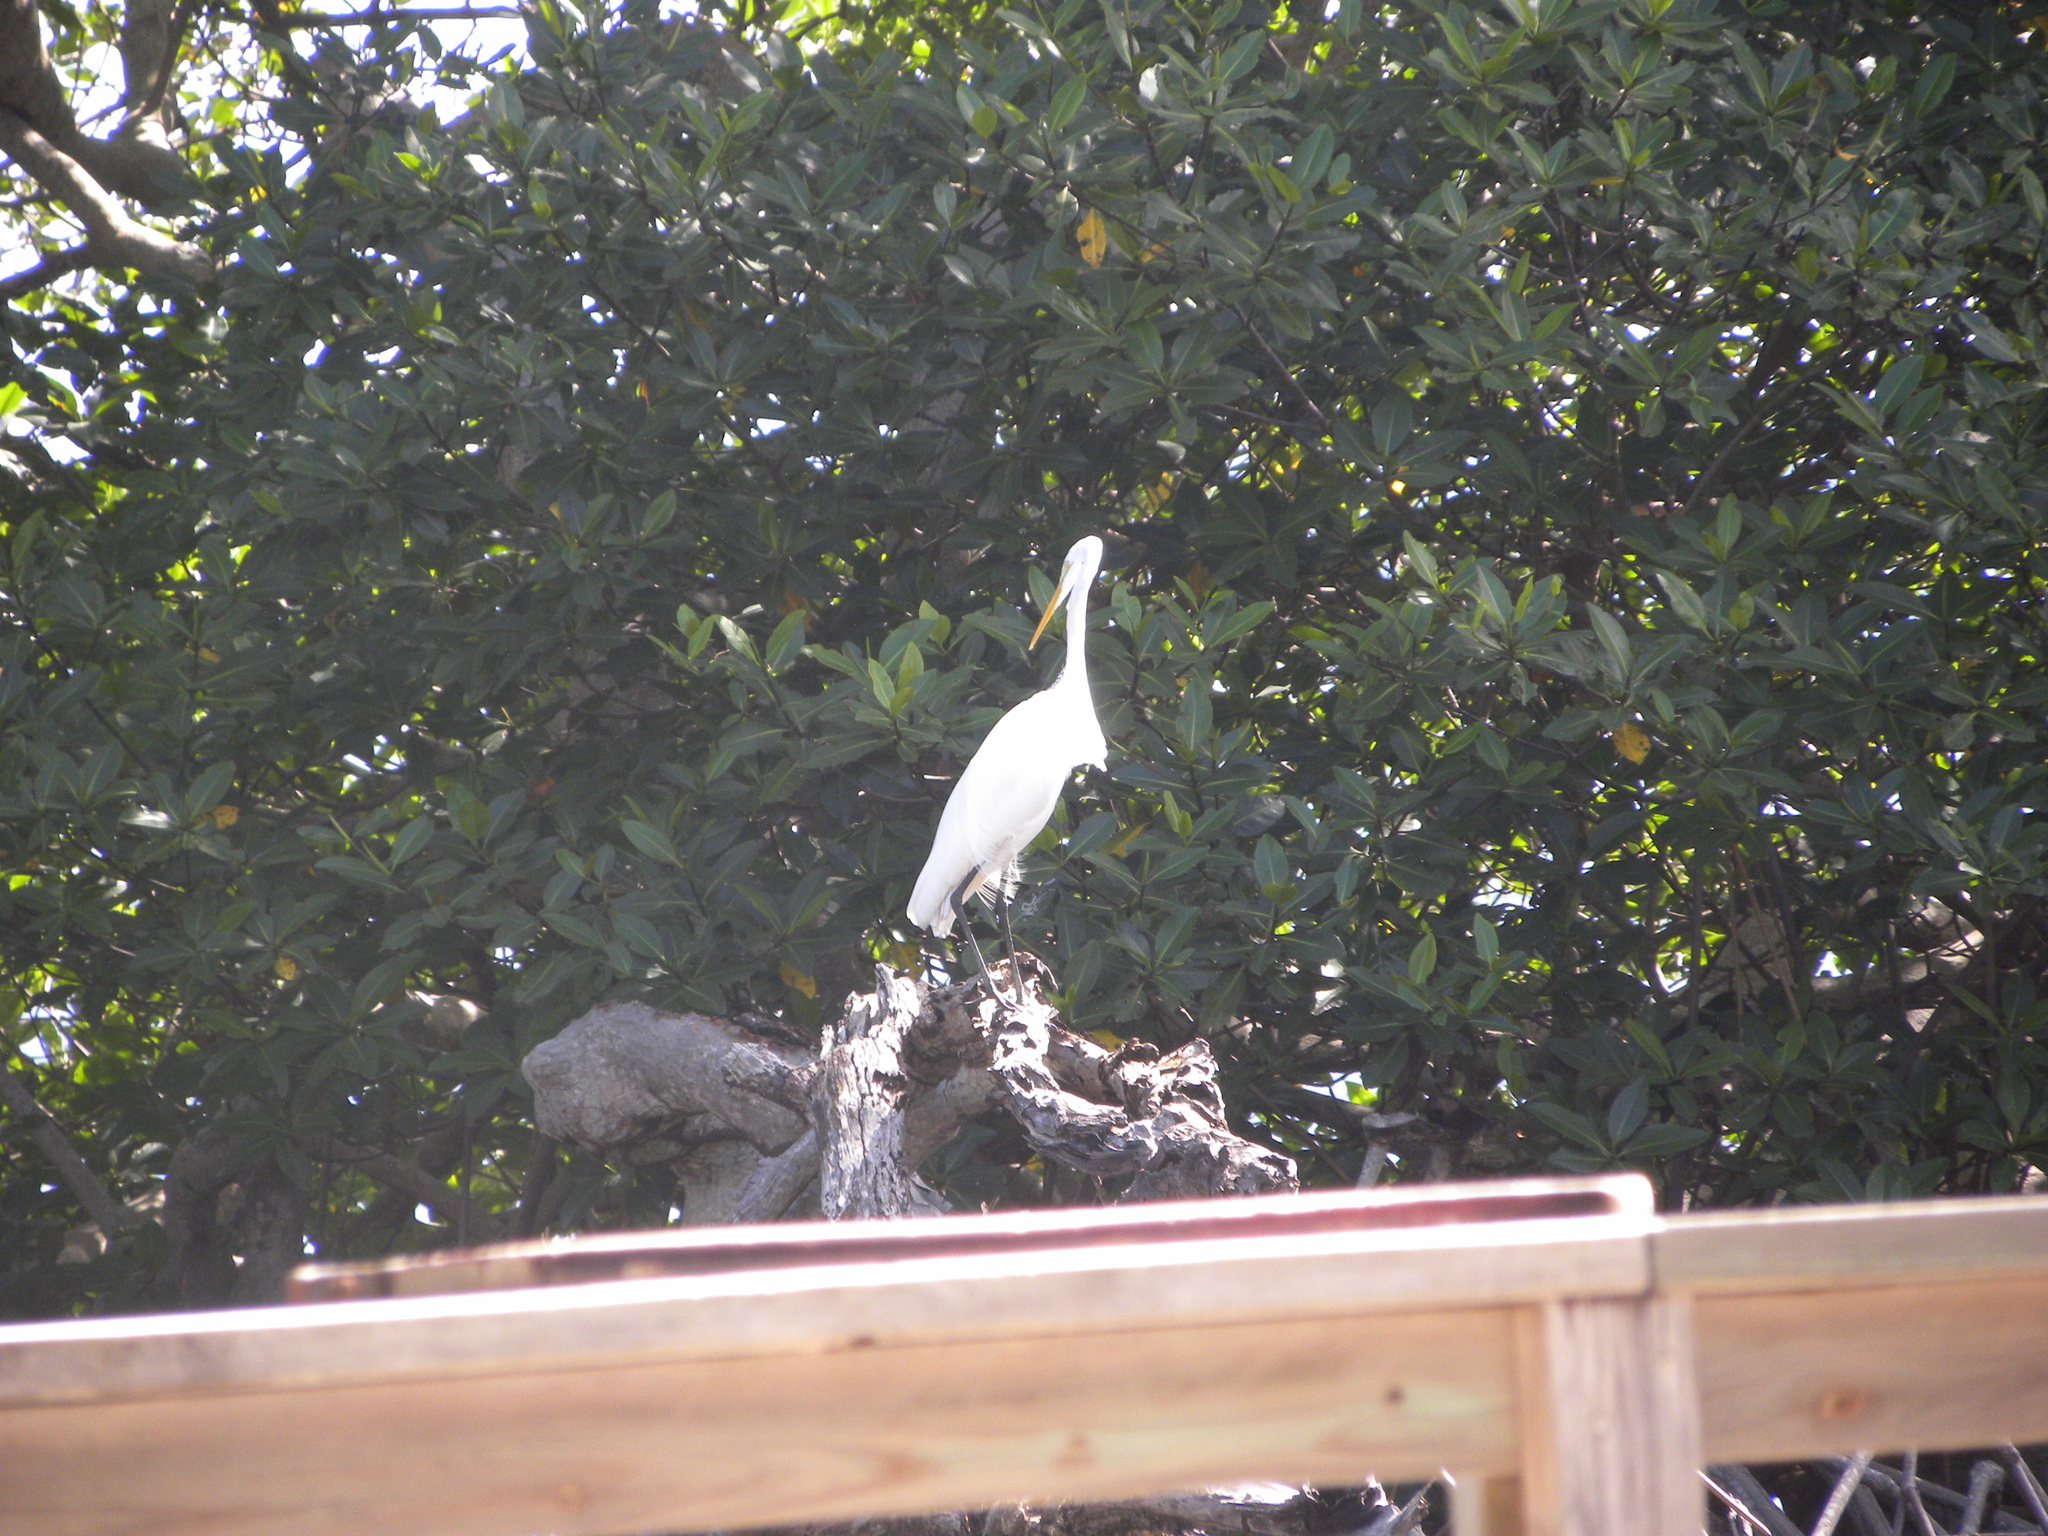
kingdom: Animalia
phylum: Chordata
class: Aves
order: Pelecaniformes
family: Ardeidae
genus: Ardea
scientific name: Ardea alba
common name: Great egret
